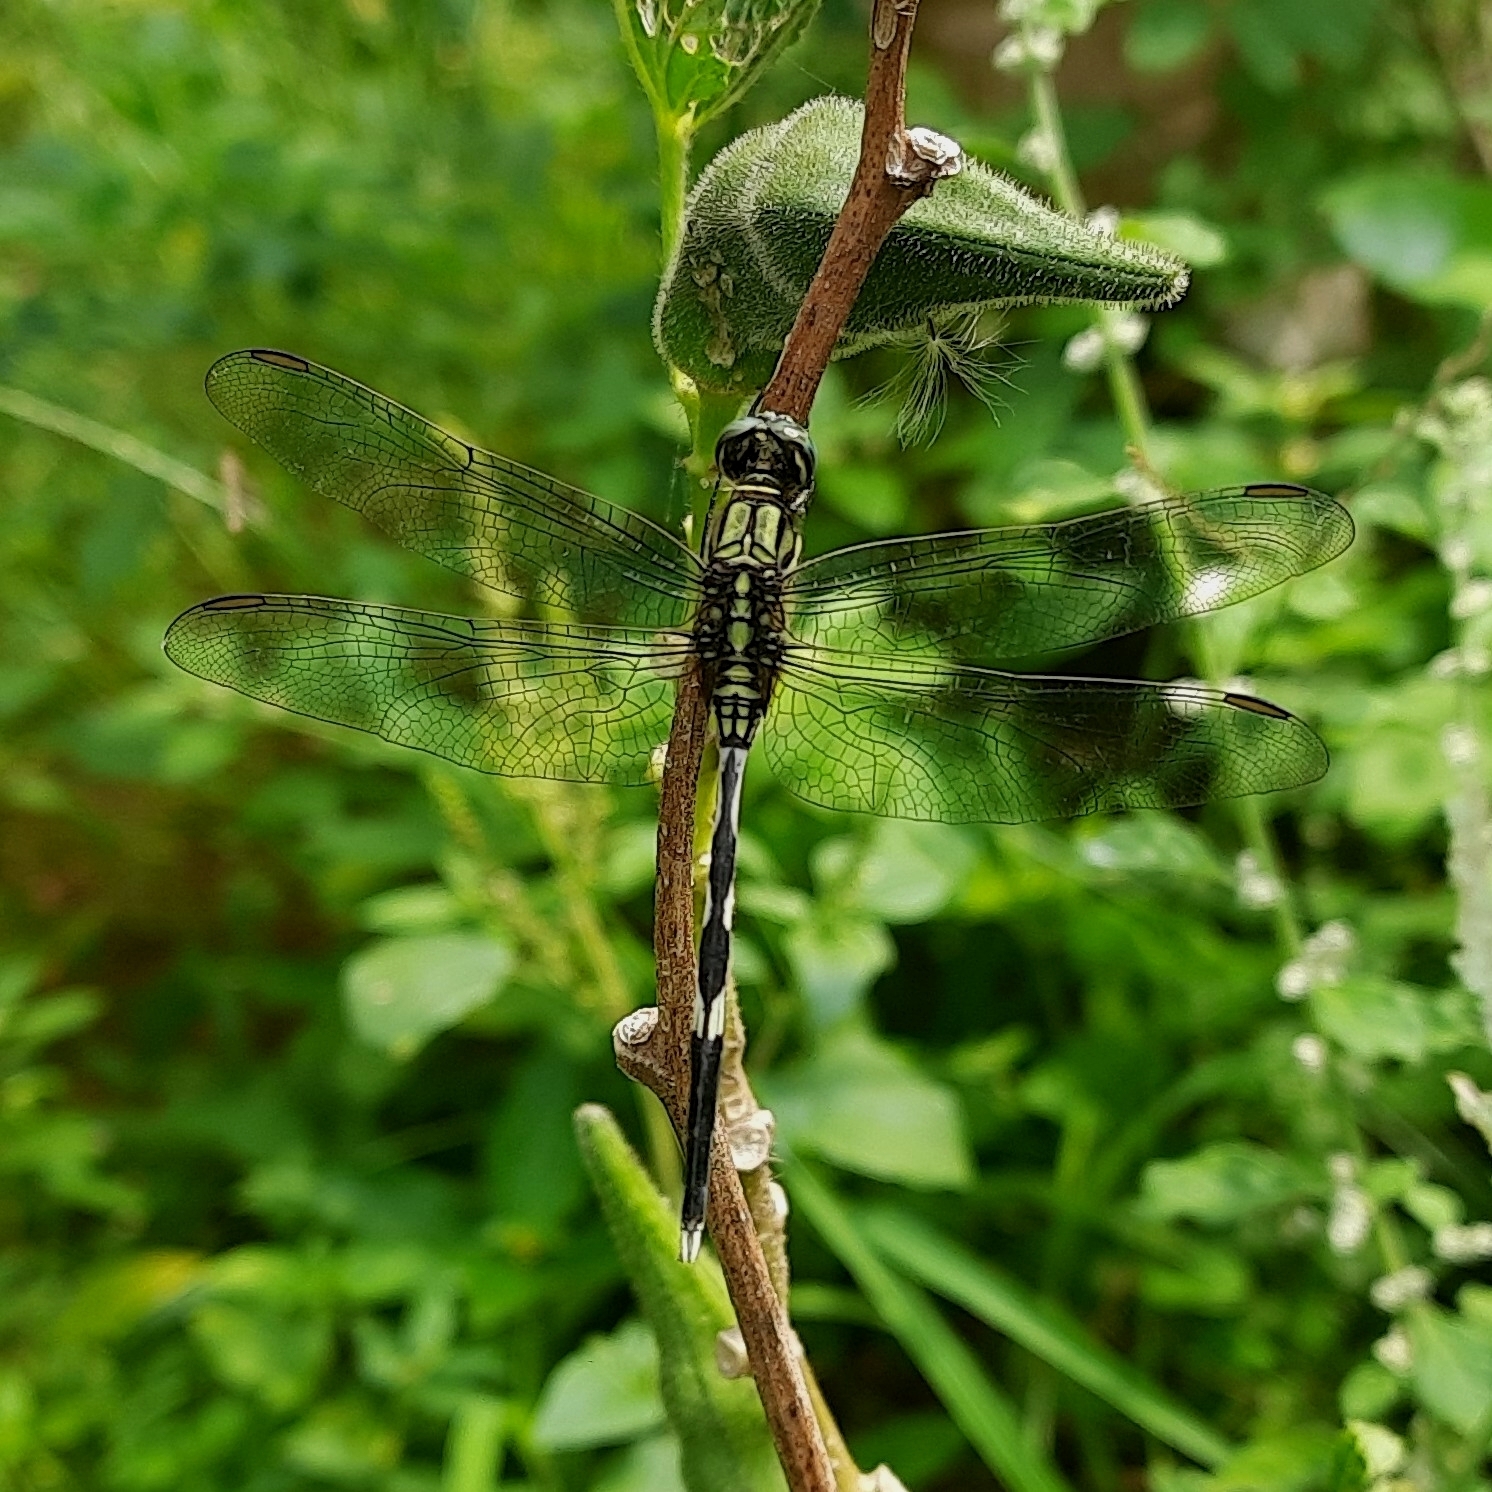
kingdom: Animalia
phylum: Arthropoda
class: Insecta
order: Odonata
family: Libellulidae
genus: Orthetrum
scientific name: Orthetrum sabina
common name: Slender skimmer
